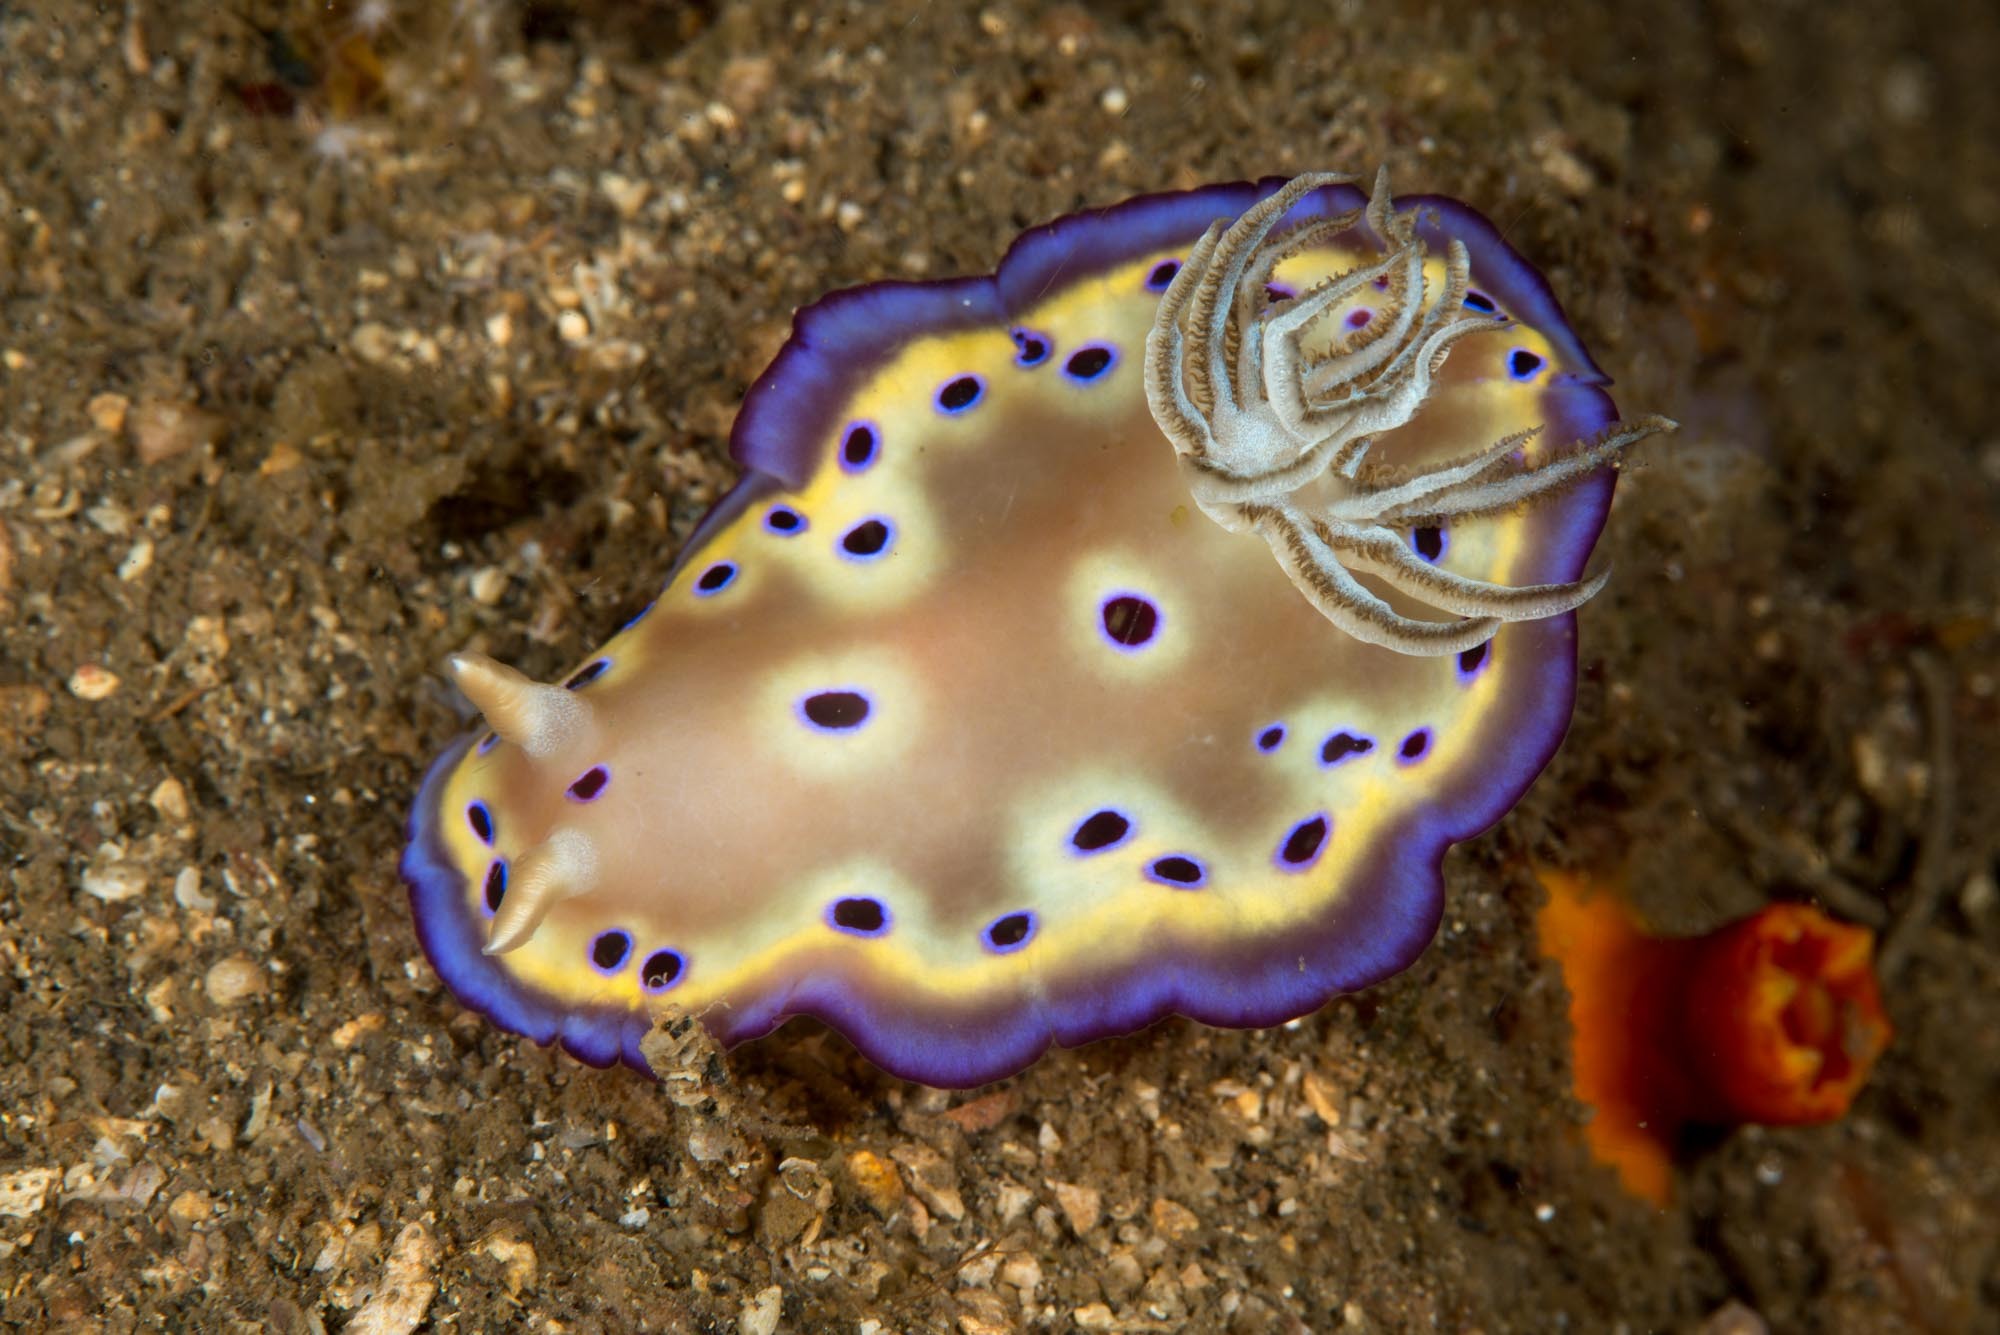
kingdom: Animalia
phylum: Mollusca
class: Gastropoda
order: Nudibranchia
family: Chromodorididae
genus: Goniobranchus
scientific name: Goniobranchus kuniei
